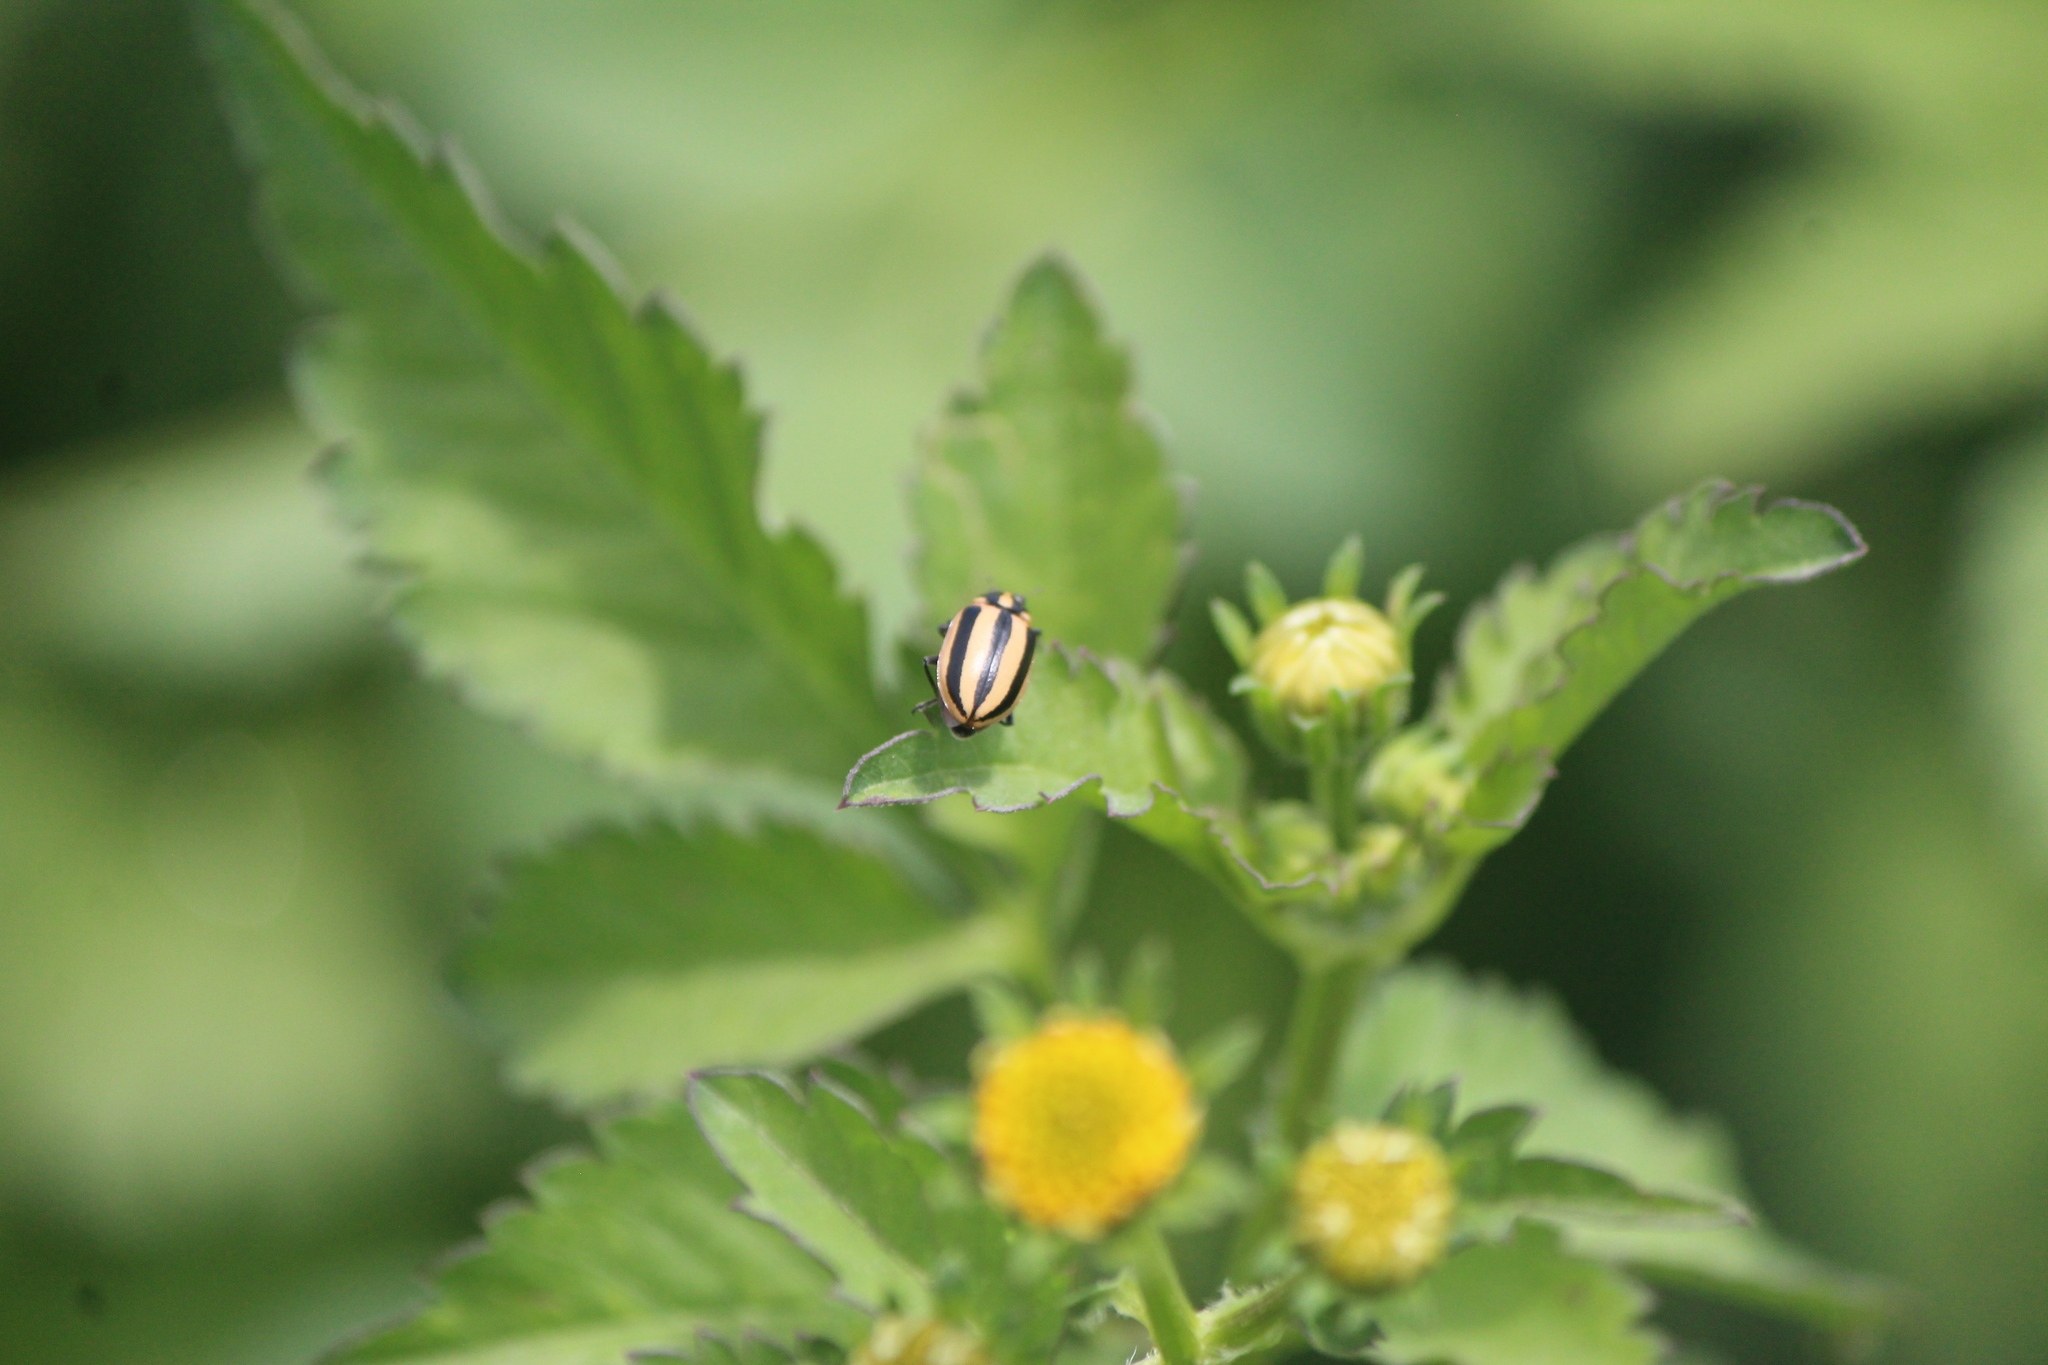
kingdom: Animalia
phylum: Arthropoda
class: Insecta
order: Coleoptera
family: Coccinellidae
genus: Paranaemia
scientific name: Paranaemia vittigera
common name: Ladybird beetle
